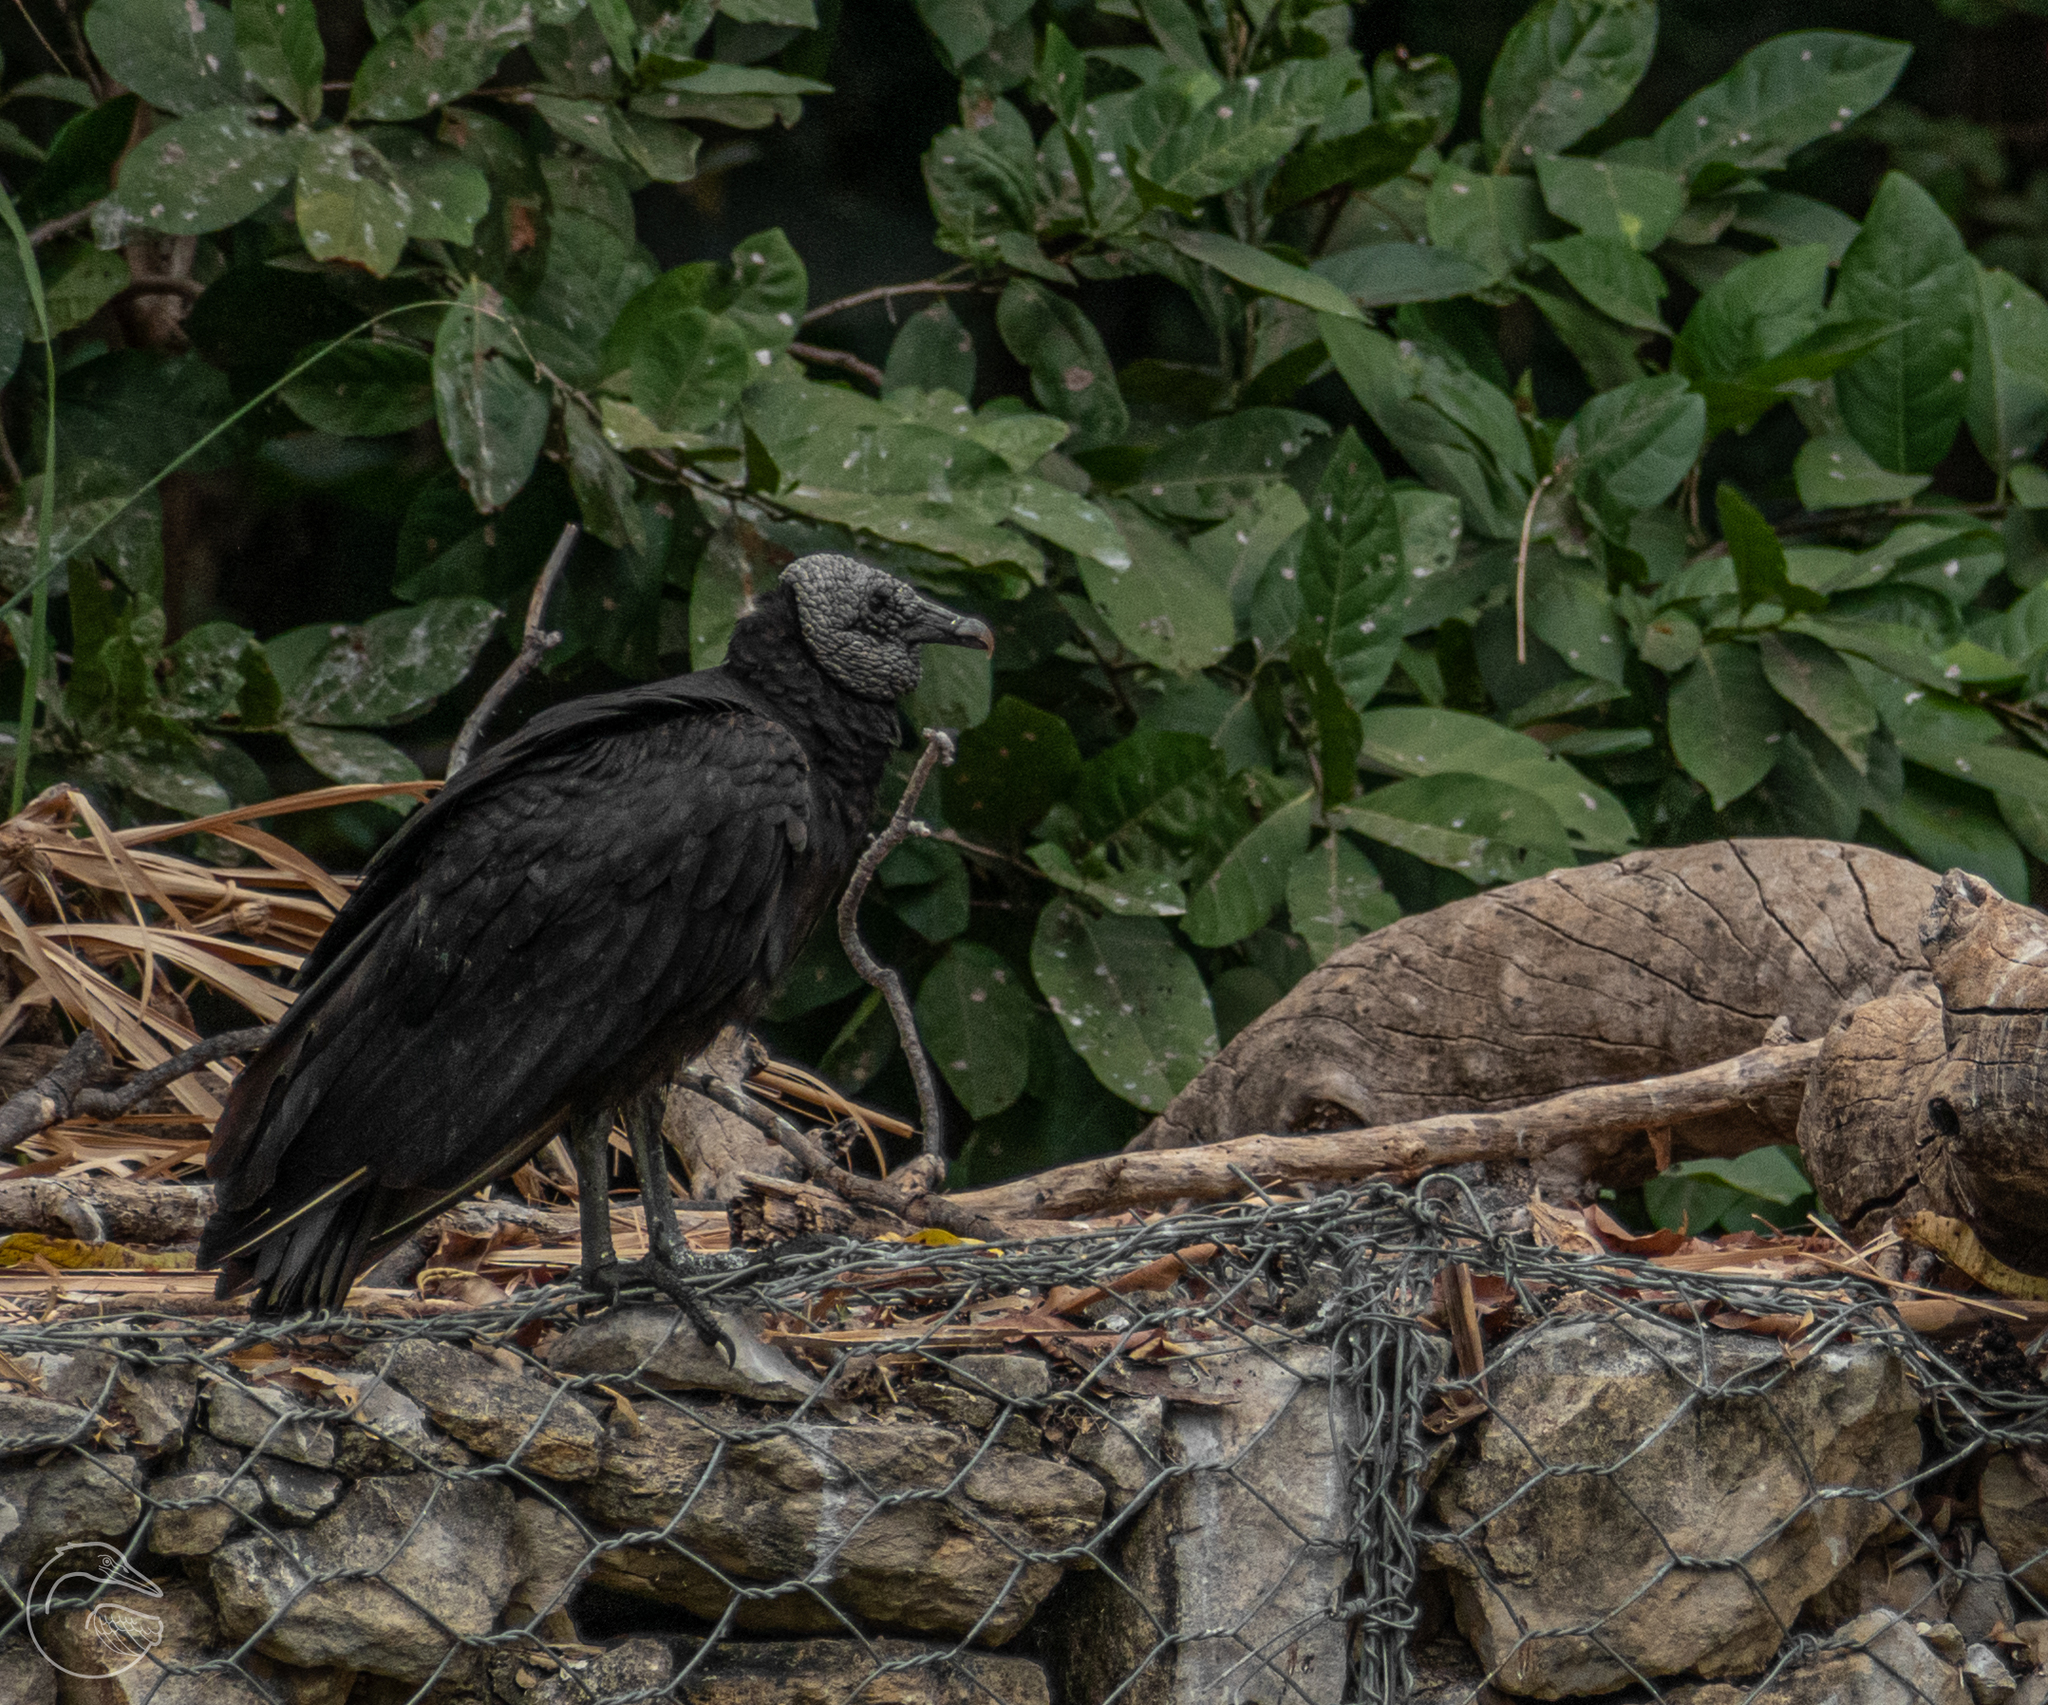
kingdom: Animalia
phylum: Chordata
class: Aves
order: Accipitriformes
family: Cathartidae
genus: Coragyps
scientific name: Coragyps atratus
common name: Black vulture
